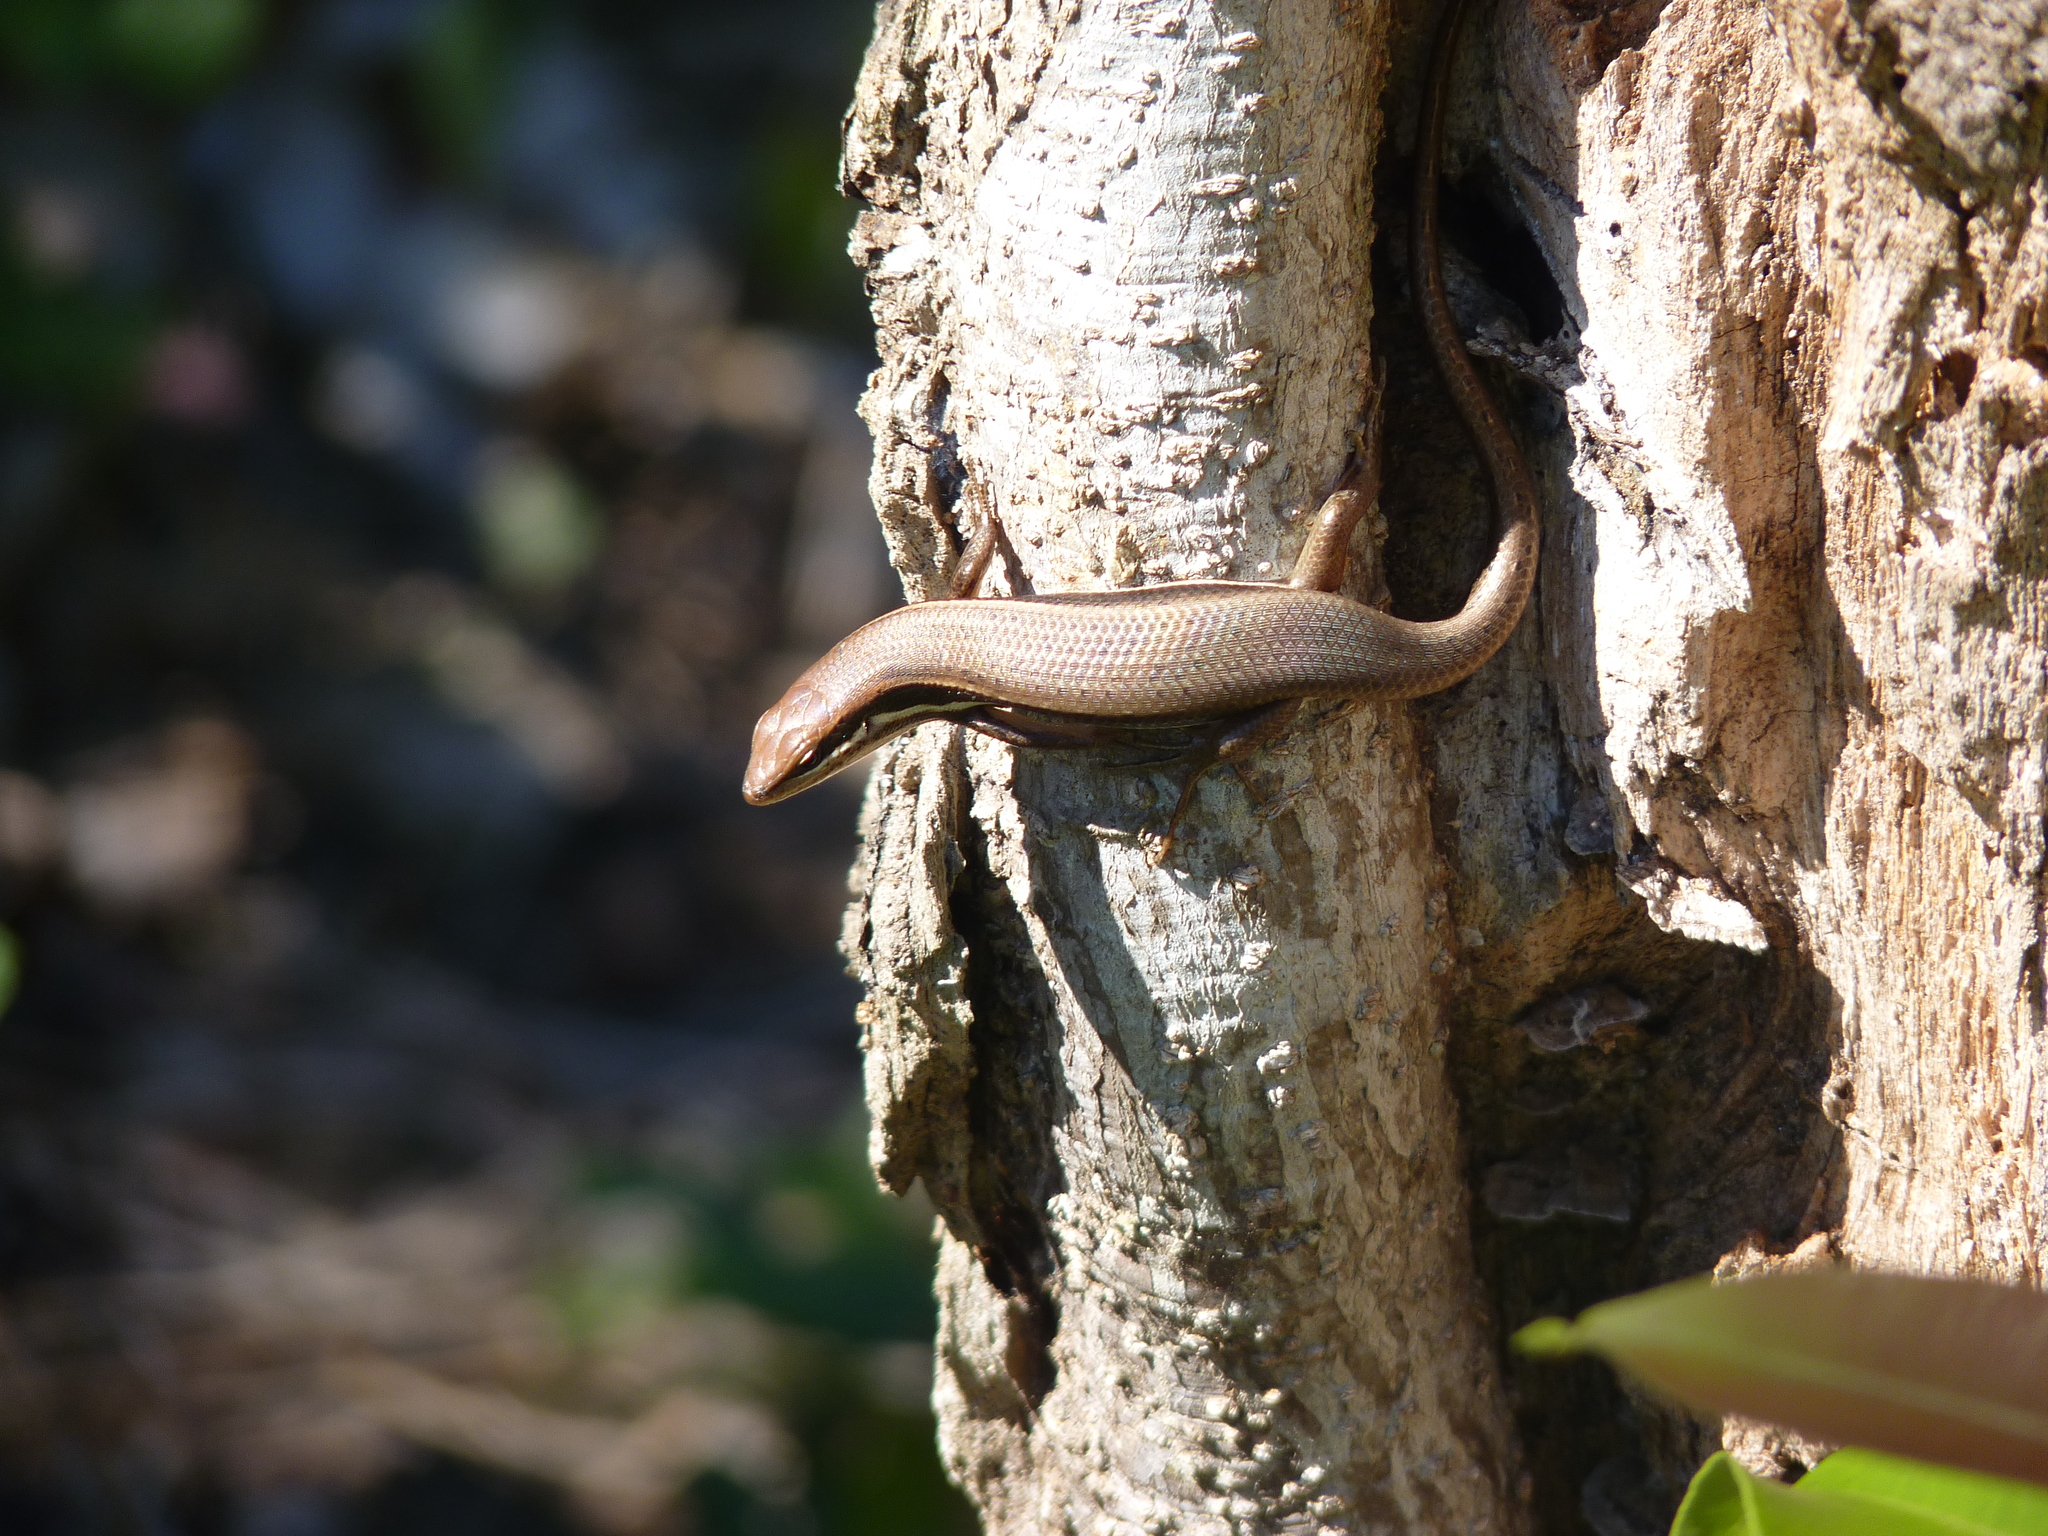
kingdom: Animalia
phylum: Chordata
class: Squamata
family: Scincidae
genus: Trachylepis
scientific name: Trachylepis gravenhorstii
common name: Gravenhorst's mabuya
